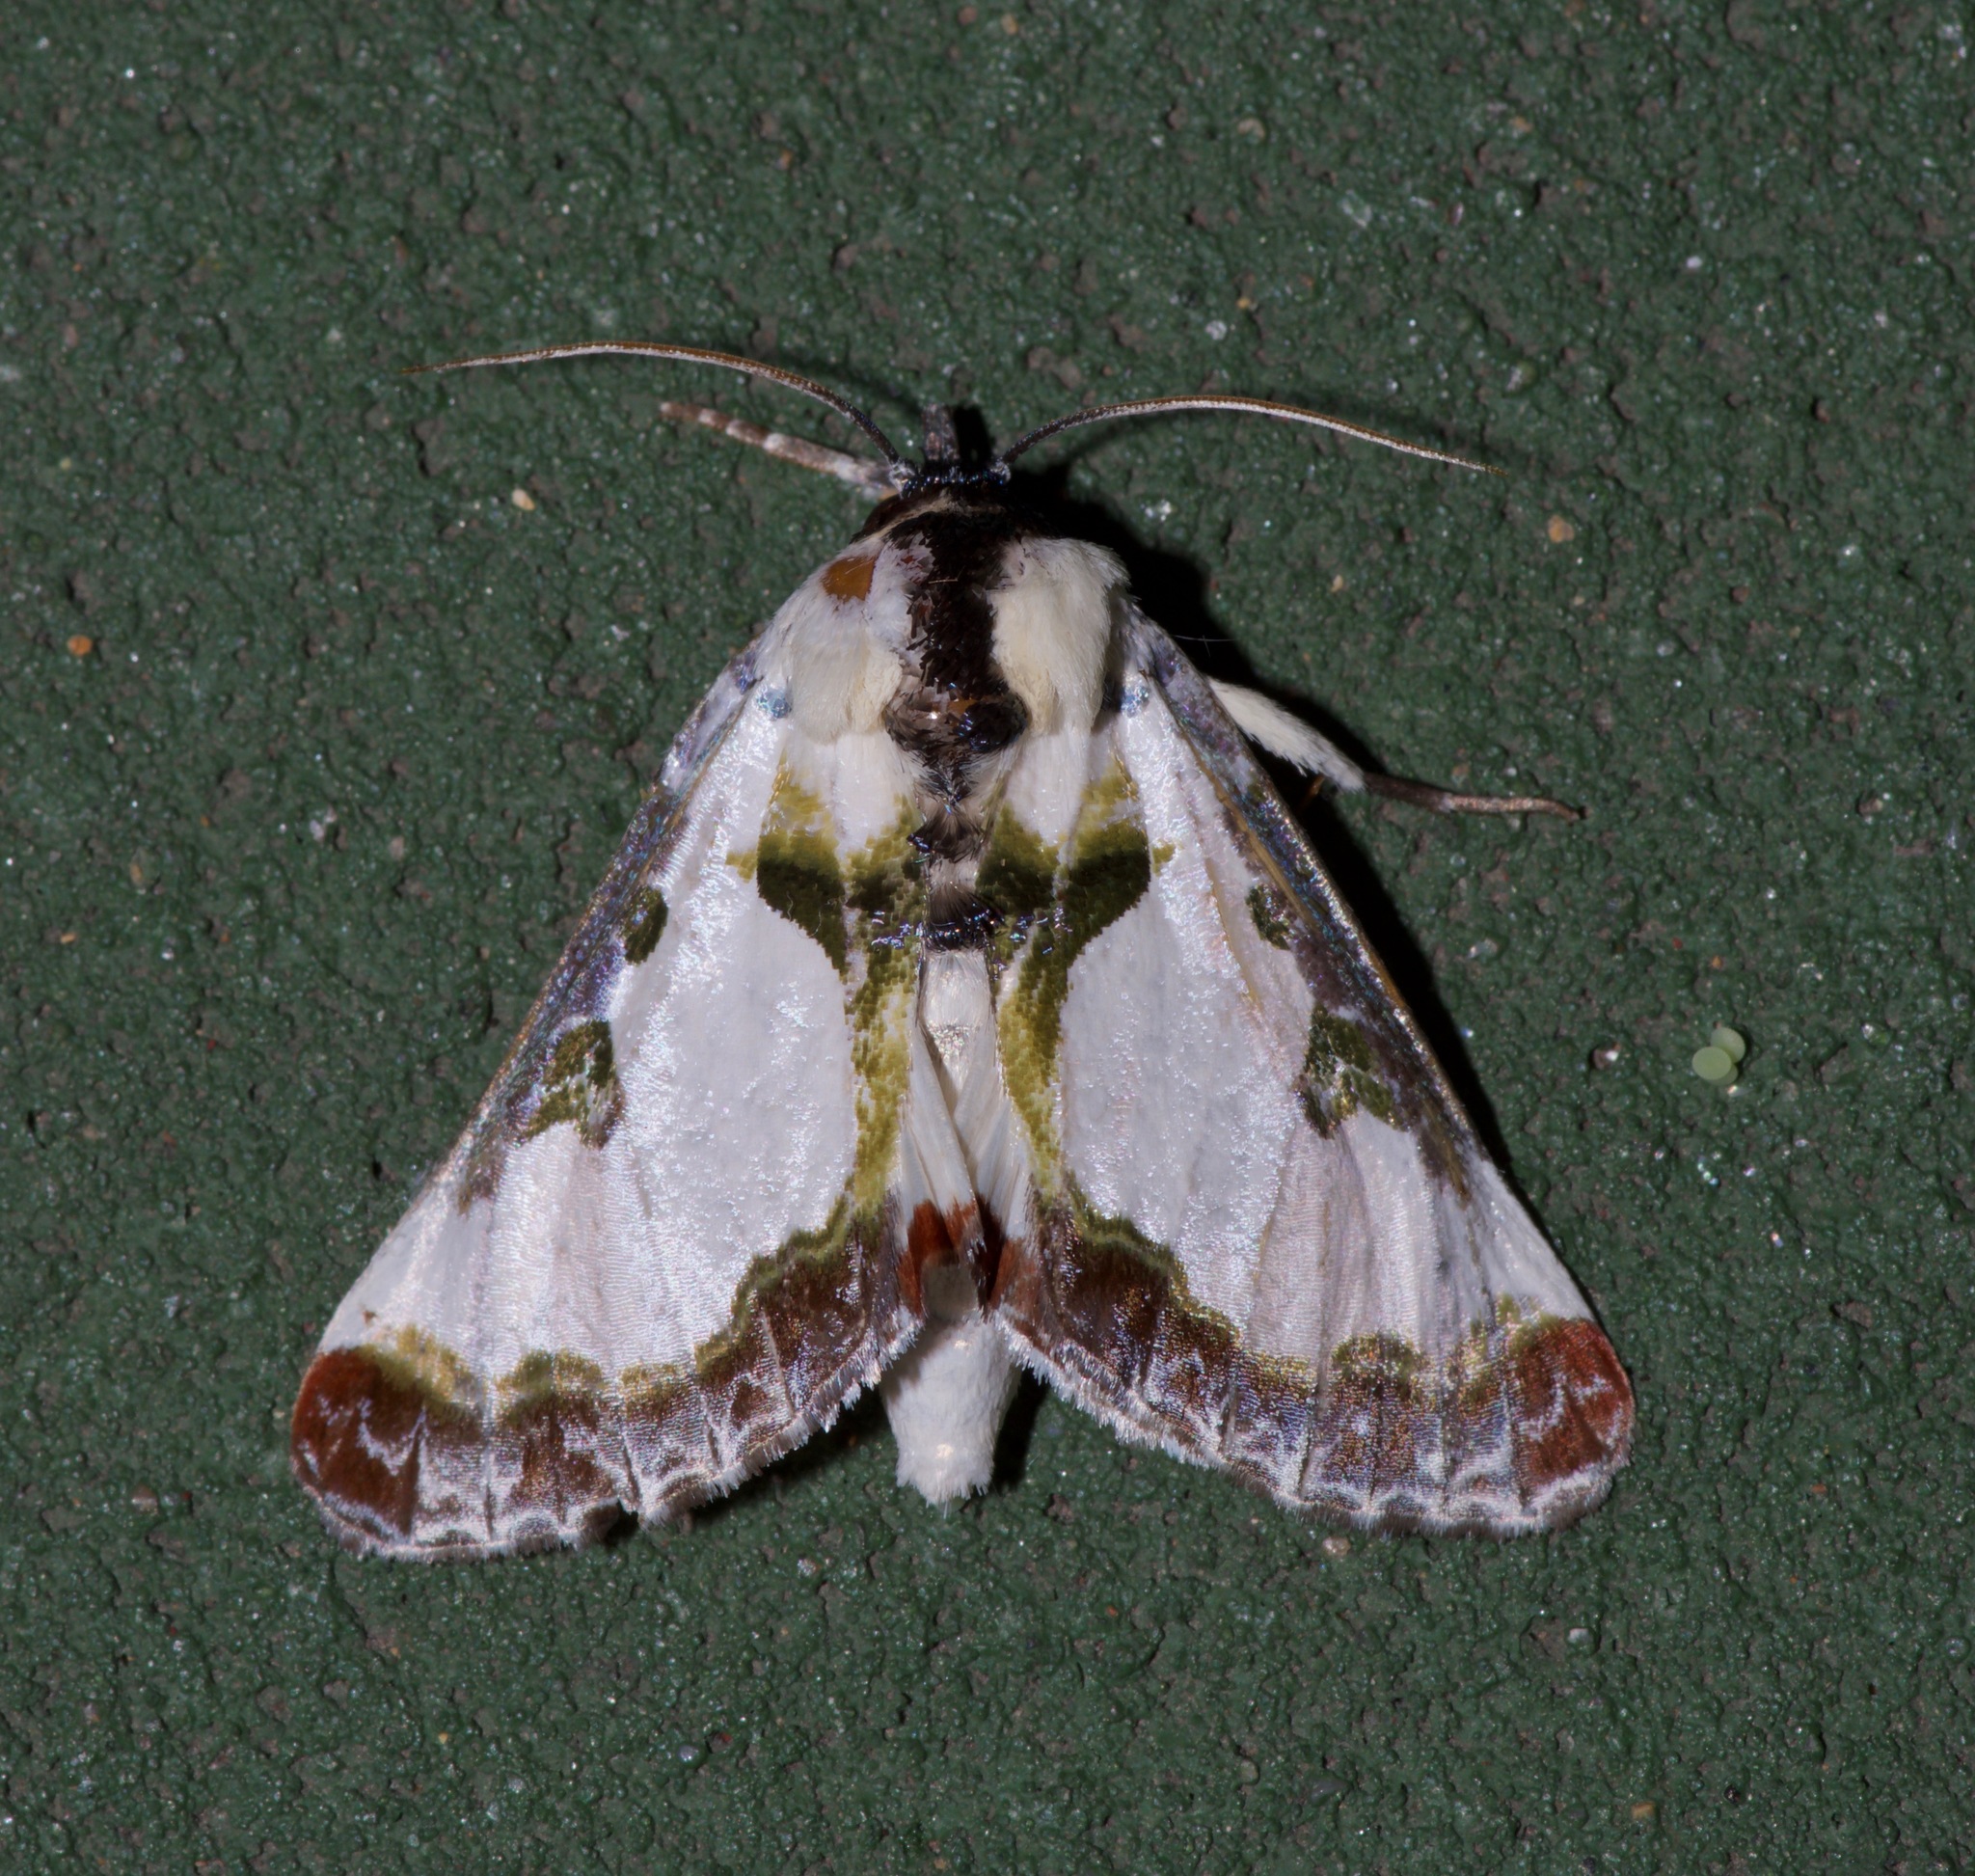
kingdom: Animalia
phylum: Arthropoda
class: Insecta
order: Lepidoptera
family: Noctuidae
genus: Xerociris
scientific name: Xerociris wilsonii
